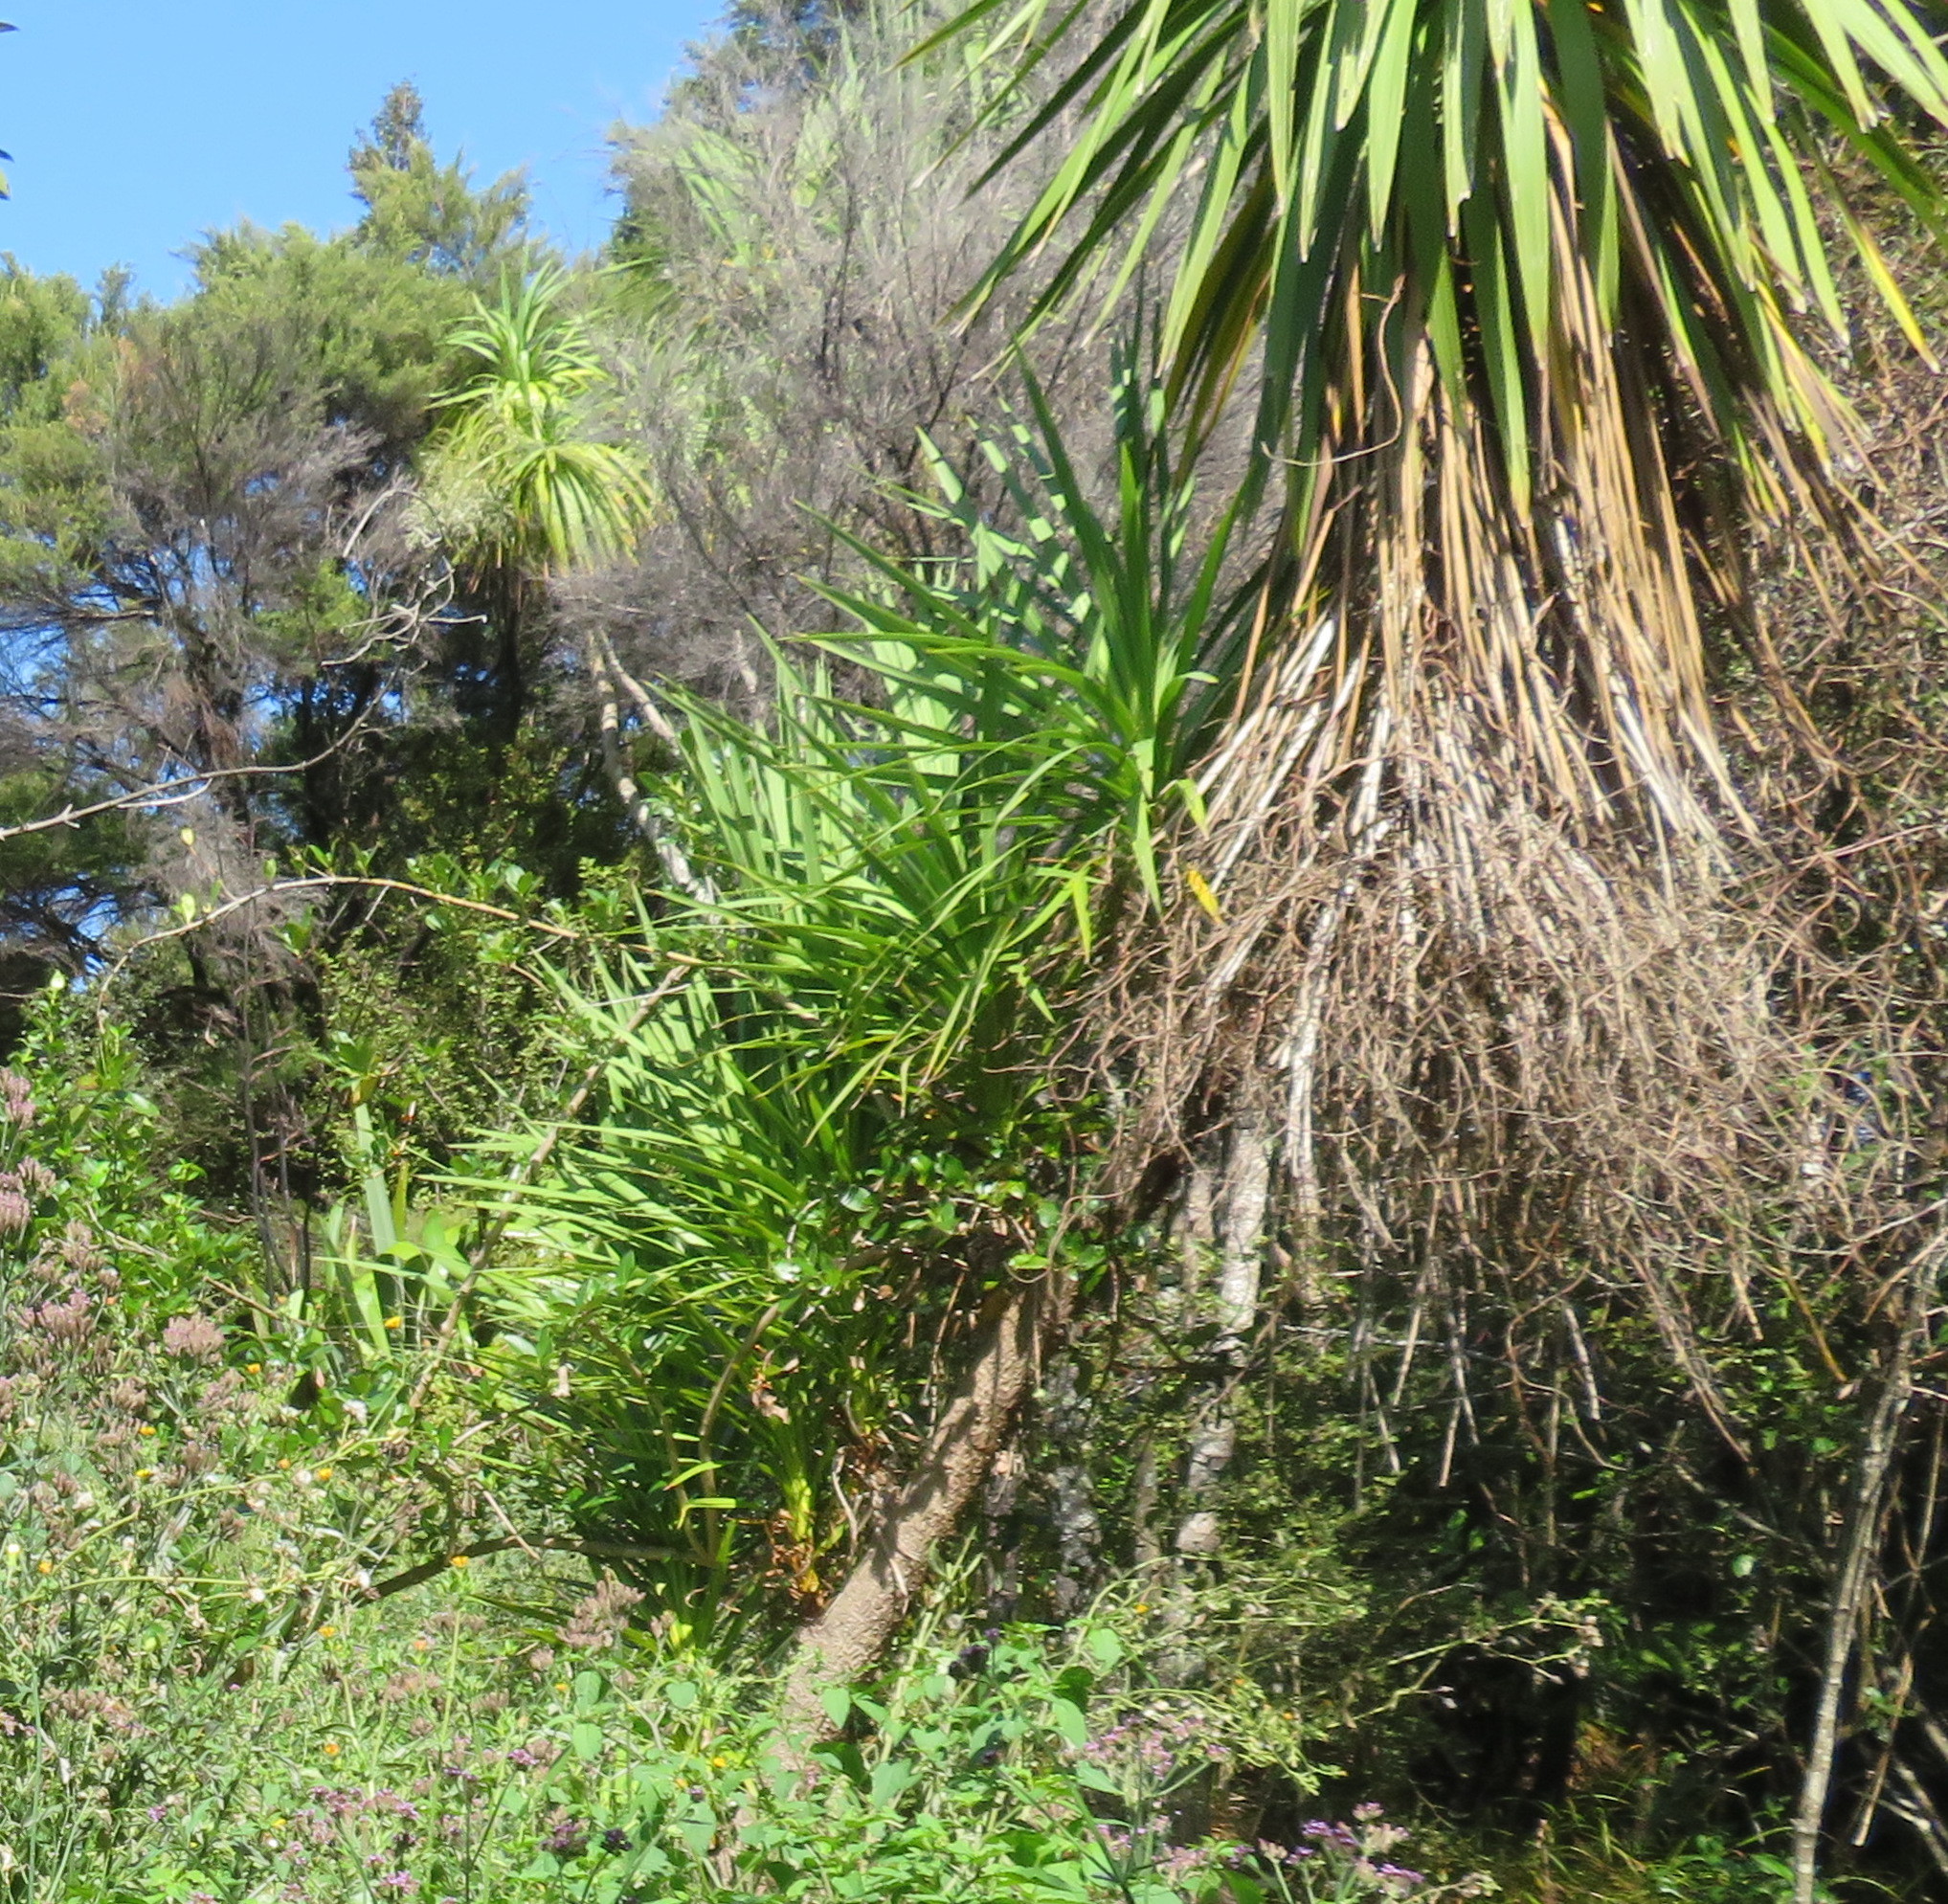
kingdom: Plantae
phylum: Tracheophyta
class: Liliopsida
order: Asparagales
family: Asparagaceae
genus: Cordyline
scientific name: Cordyline australis
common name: Cabbage-palm
